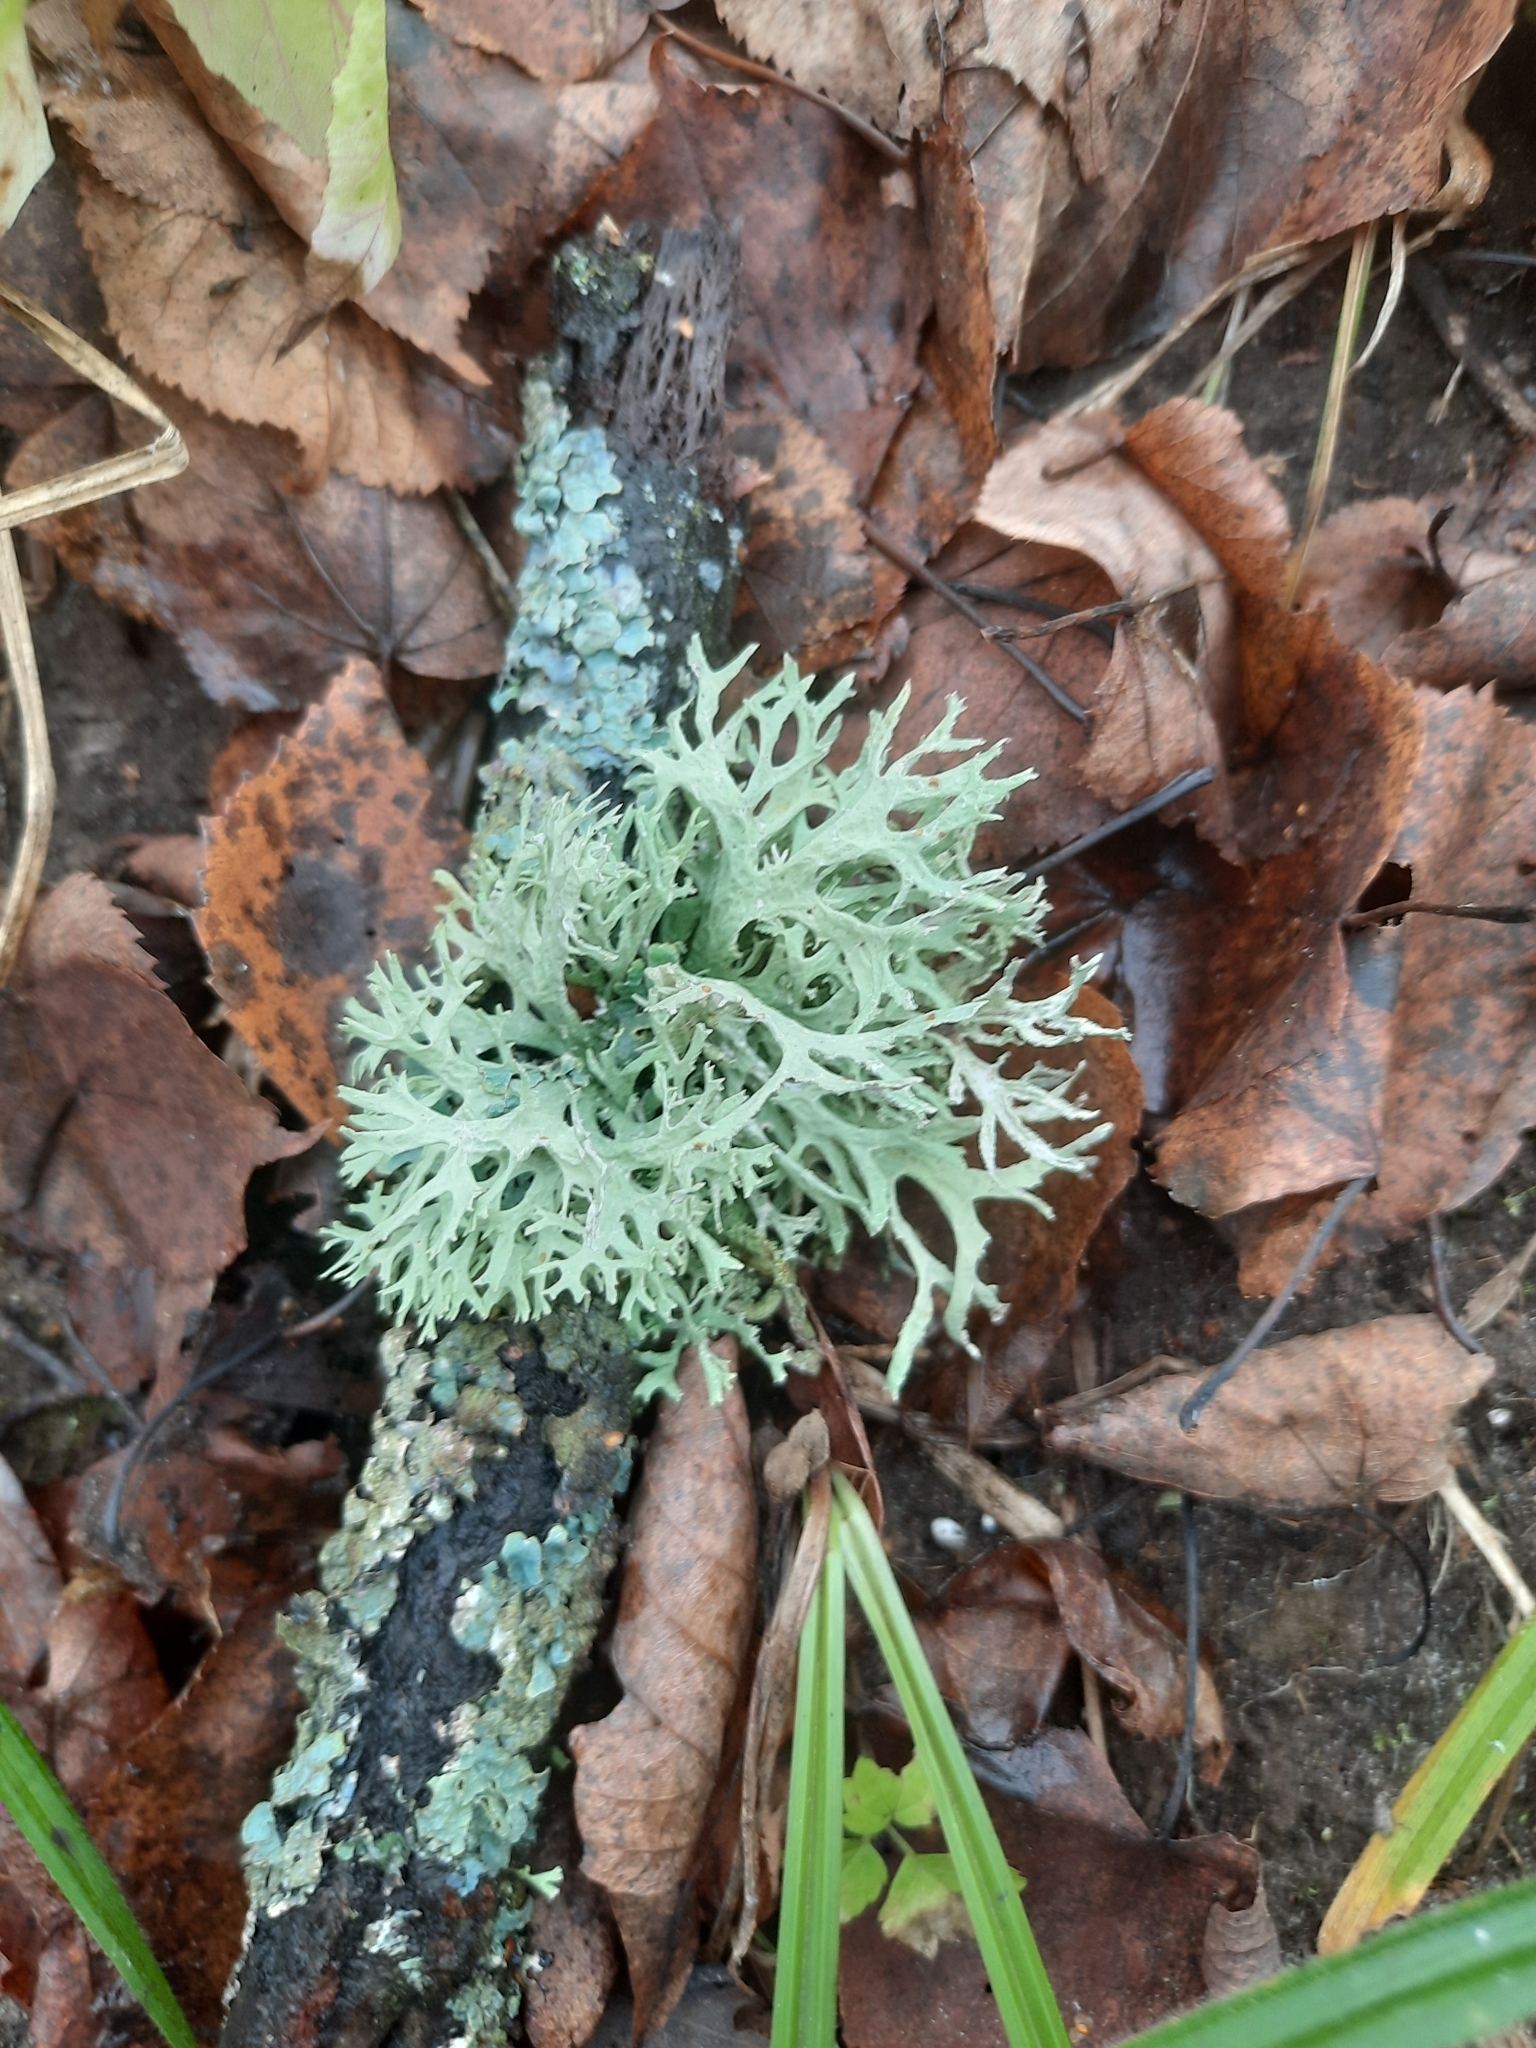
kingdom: Fungi
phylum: Ascomycota
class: Lecanoromycetes
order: Lecanorales
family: Parmeliaceae
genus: Evernia
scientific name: Evernia prunastri
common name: Oak moss
